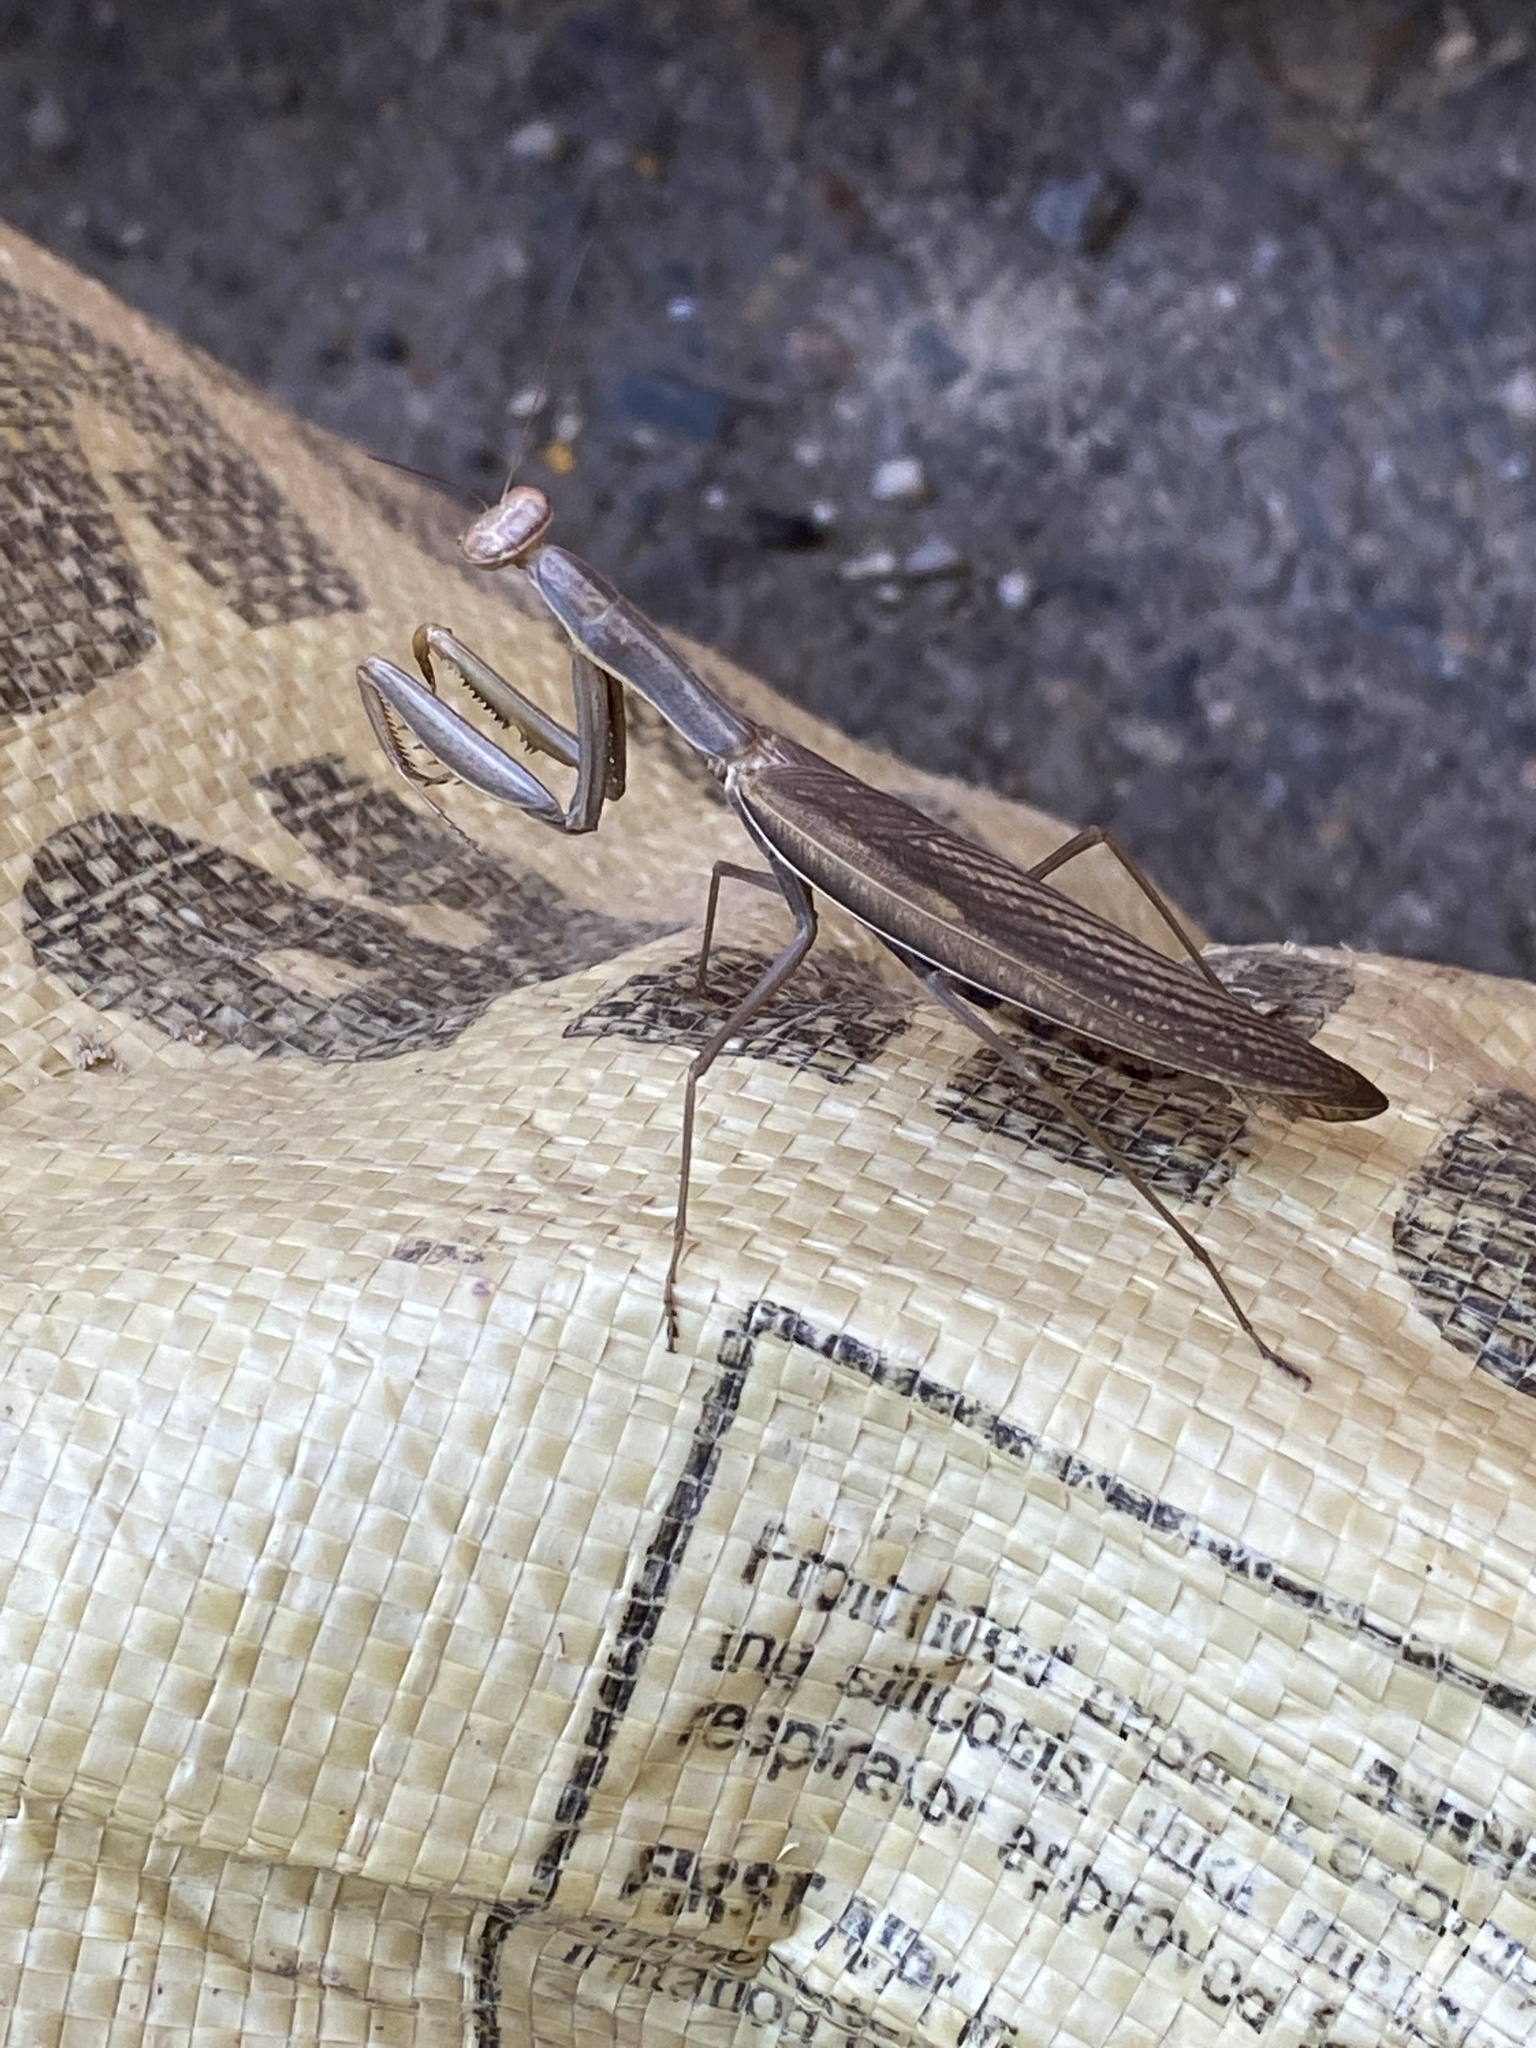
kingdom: Animalia
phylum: Arthropoda
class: Insecta
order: Mantodea
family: Mantidae
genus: Mantis
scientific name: Mantis religiosa
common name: Praying mantis
